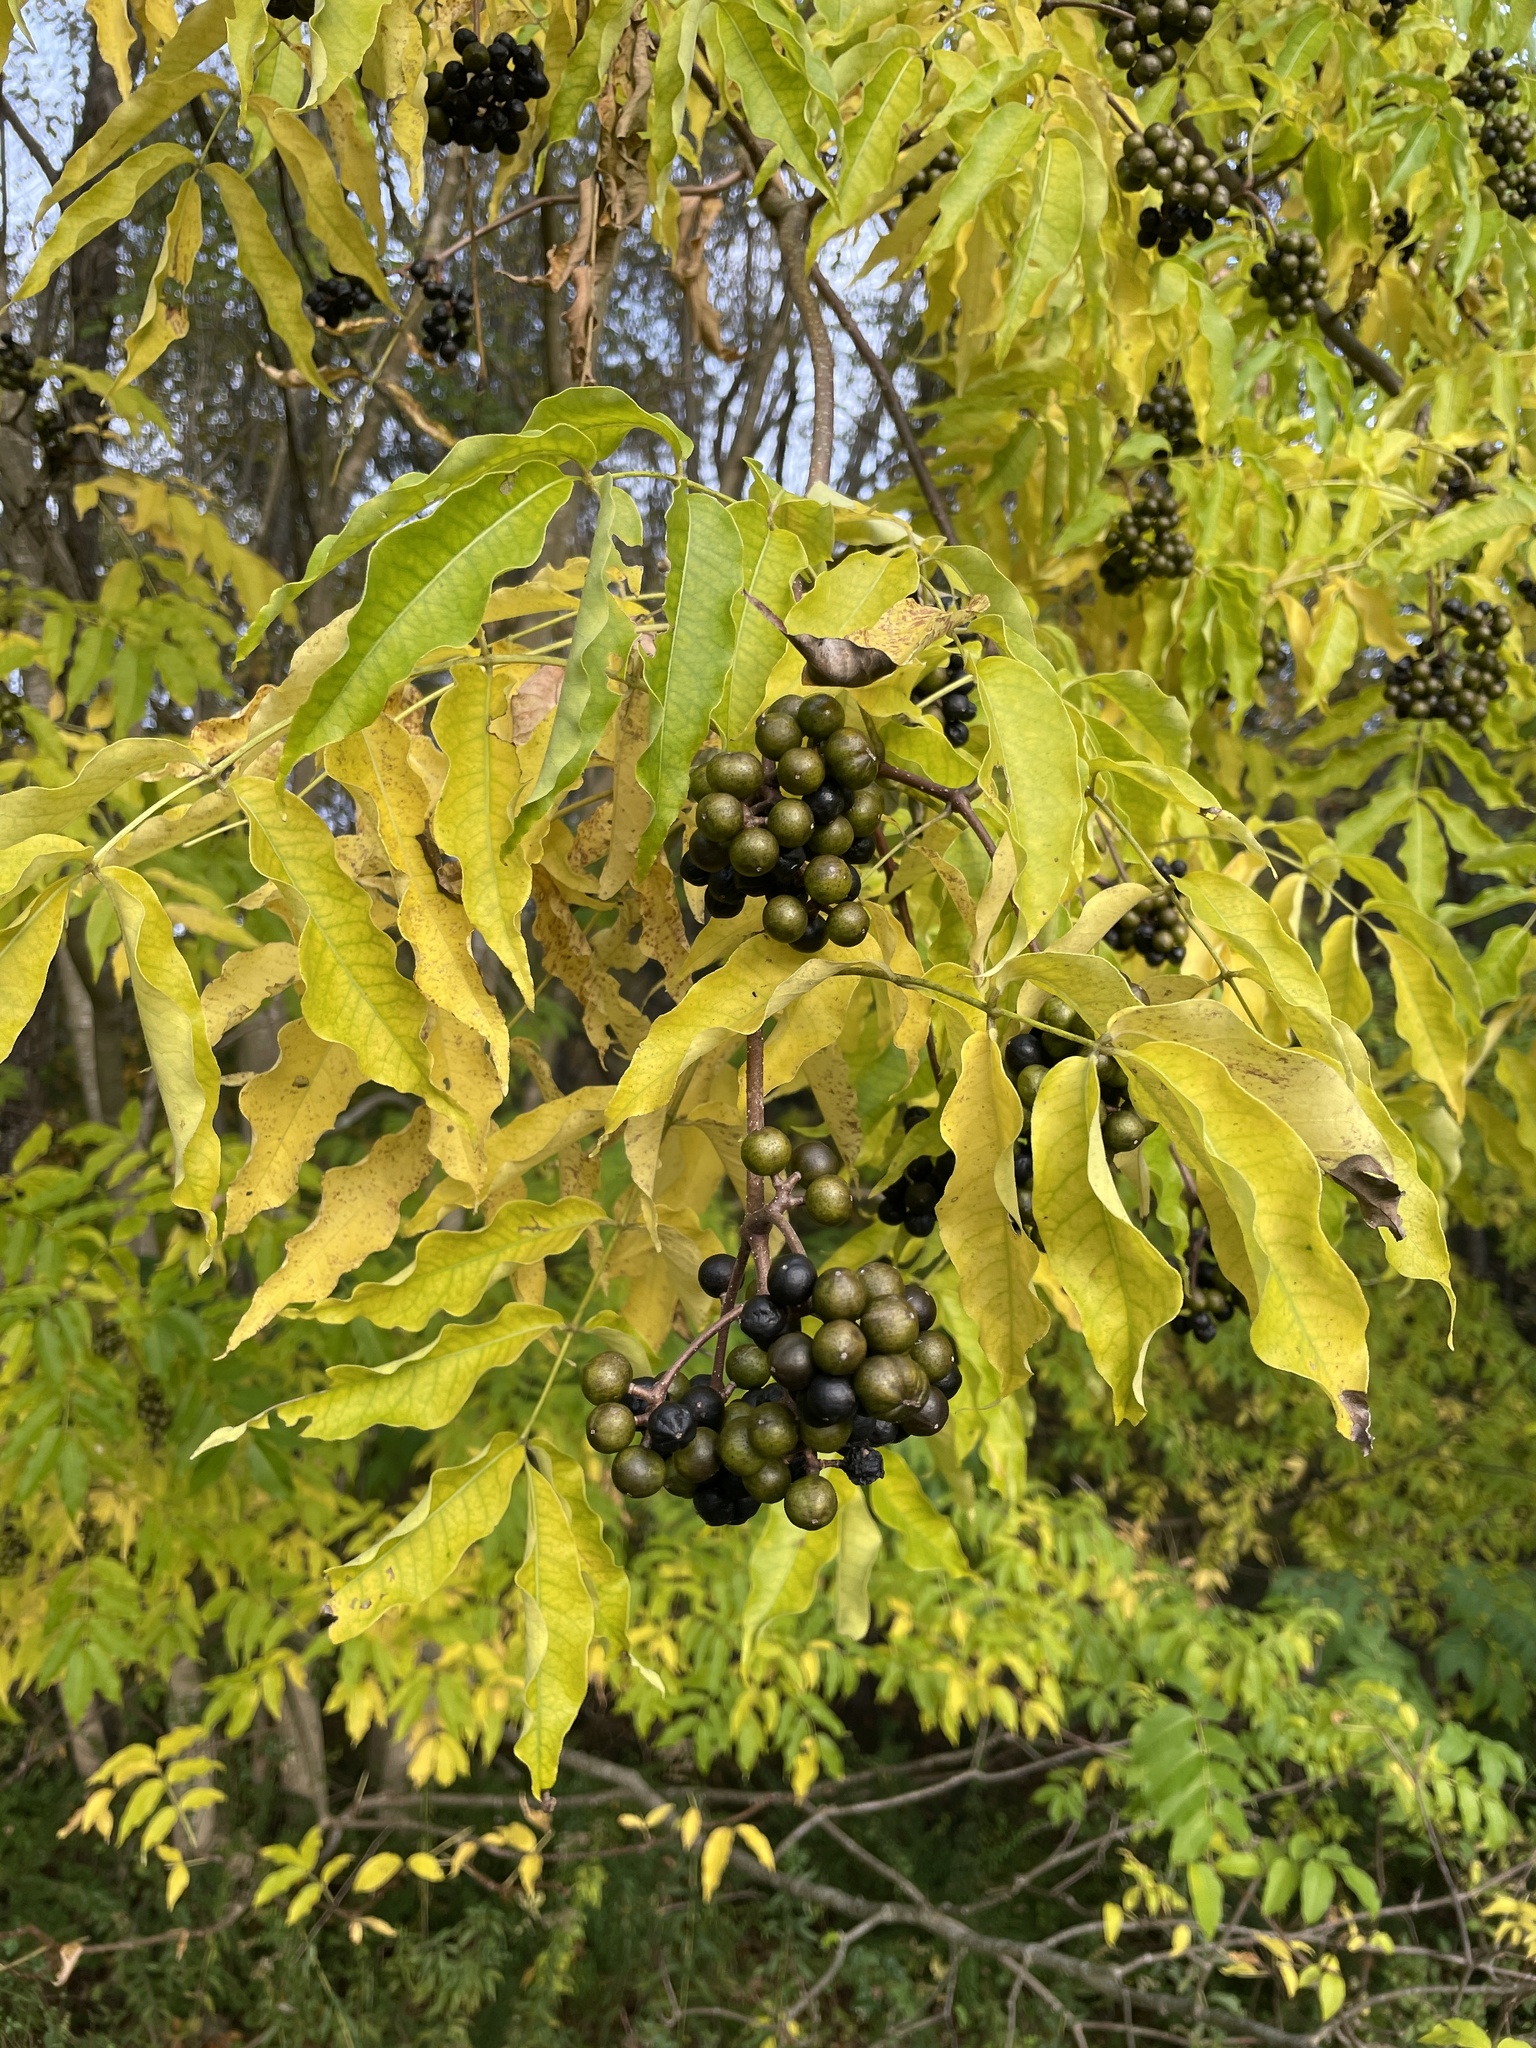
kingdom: Plantae
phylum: Tracheophyta
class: Magnoliopsida
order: Sapindales
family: Rutaceae
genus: Phellodendron
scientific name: Phellodendron amurense
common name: Amur corktree
